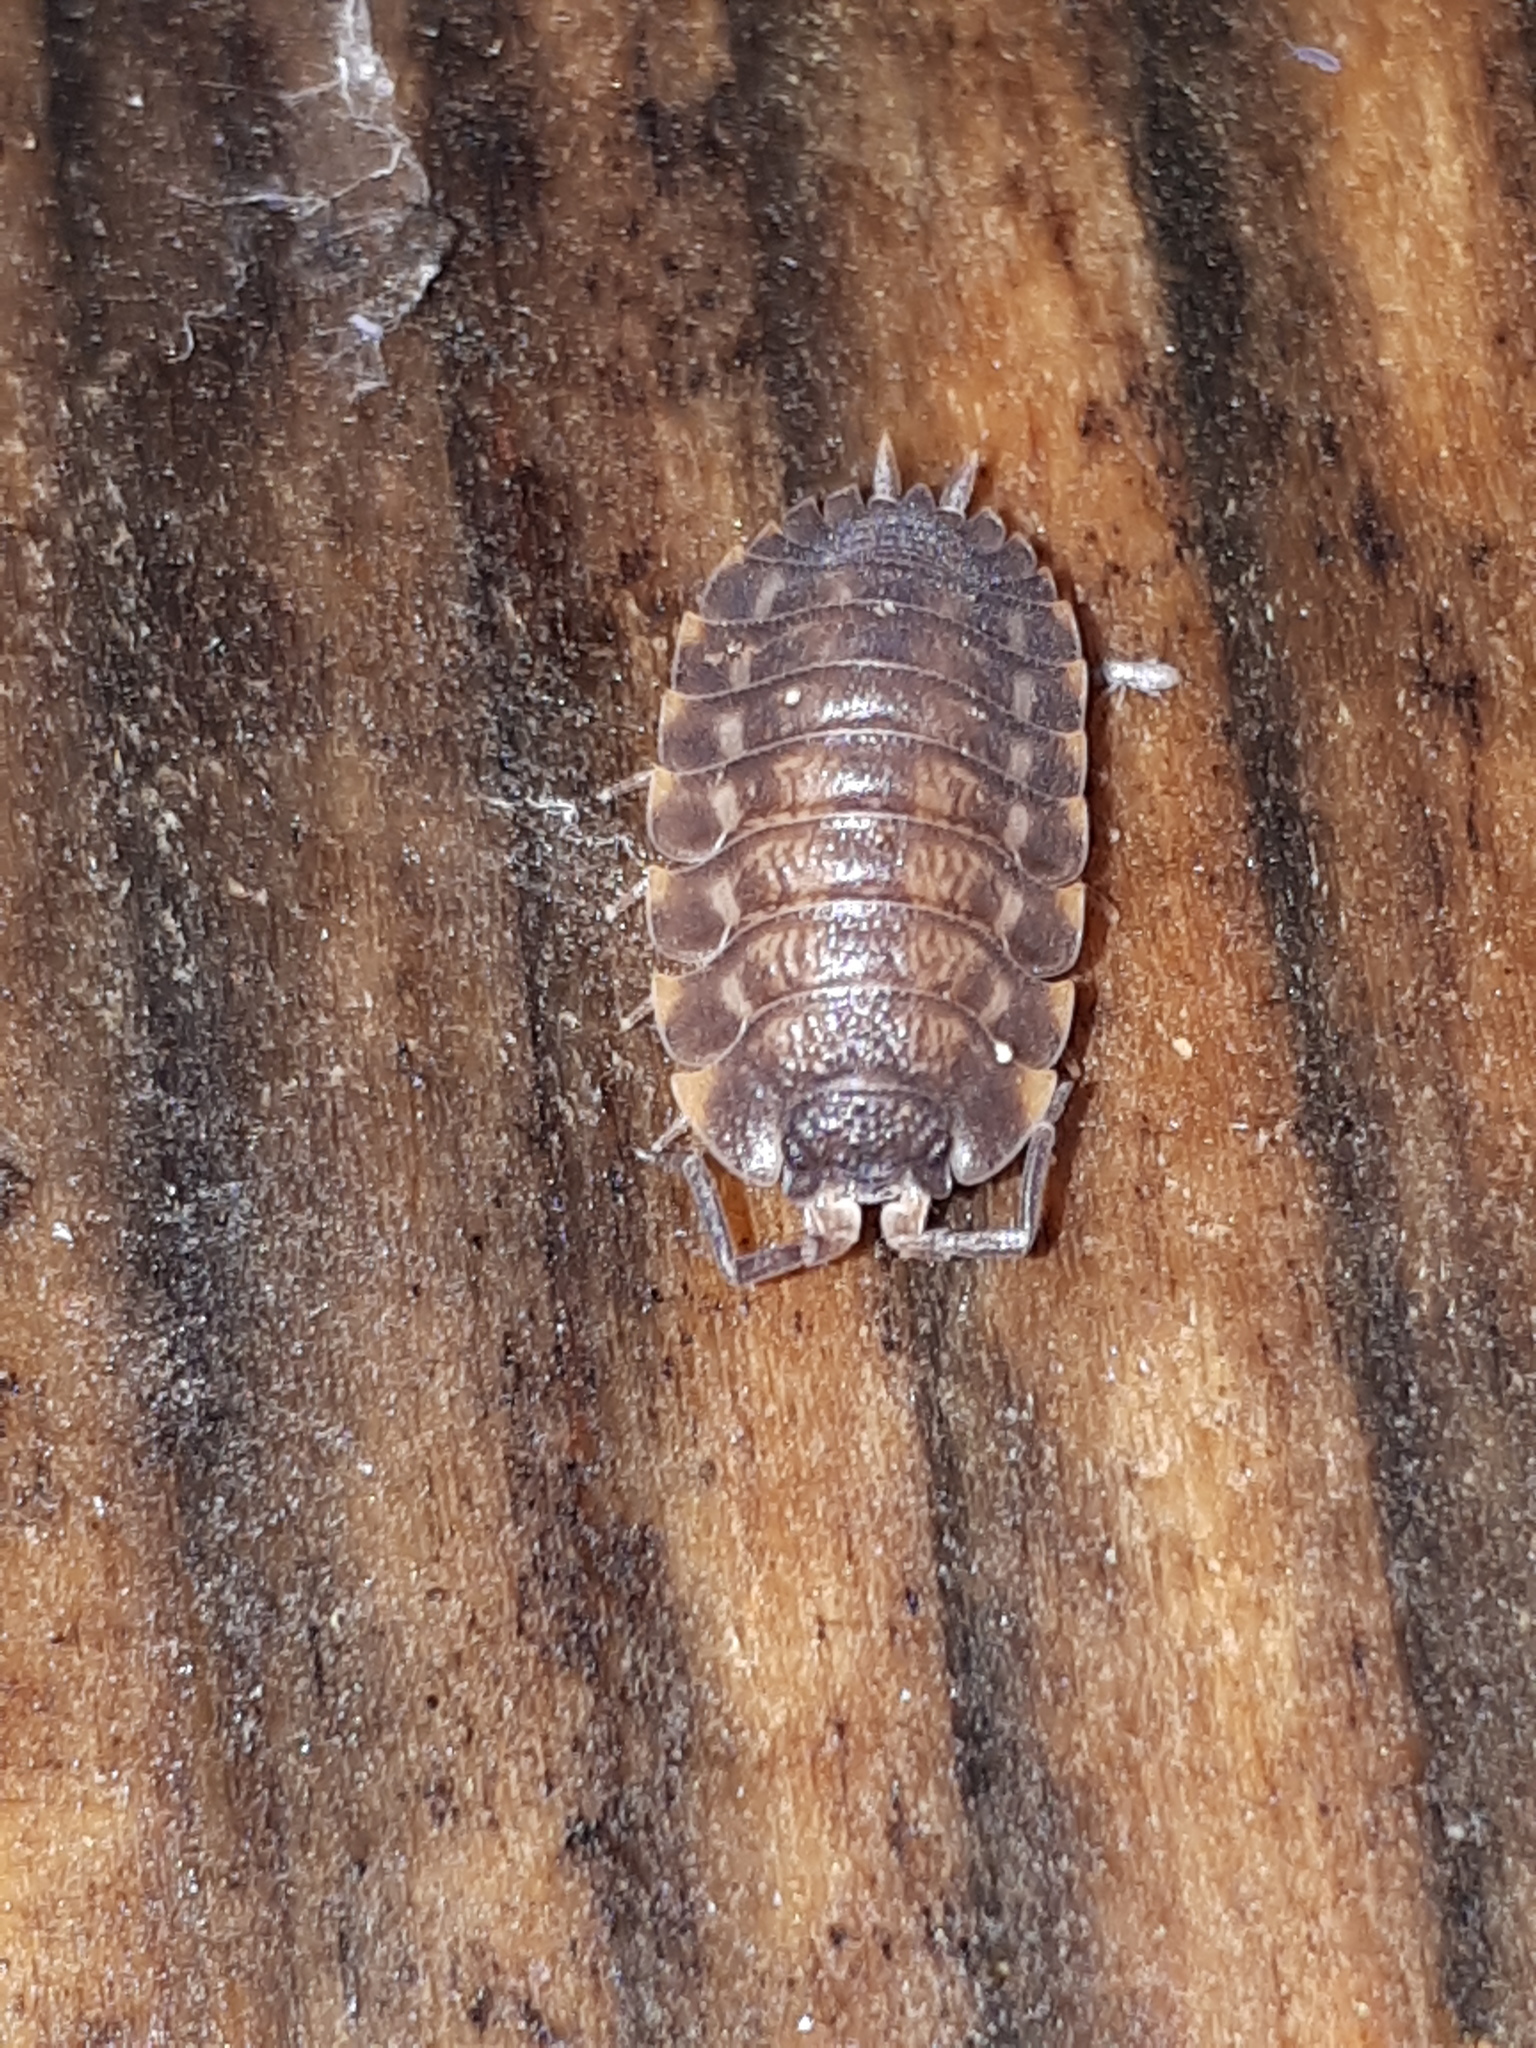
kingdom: Animalia
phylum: Arthropoda
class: Malacostraca
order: Isopoda
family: Trachelipodidae
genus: Trachelipus
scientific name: Trachelipus ratzeburgii
